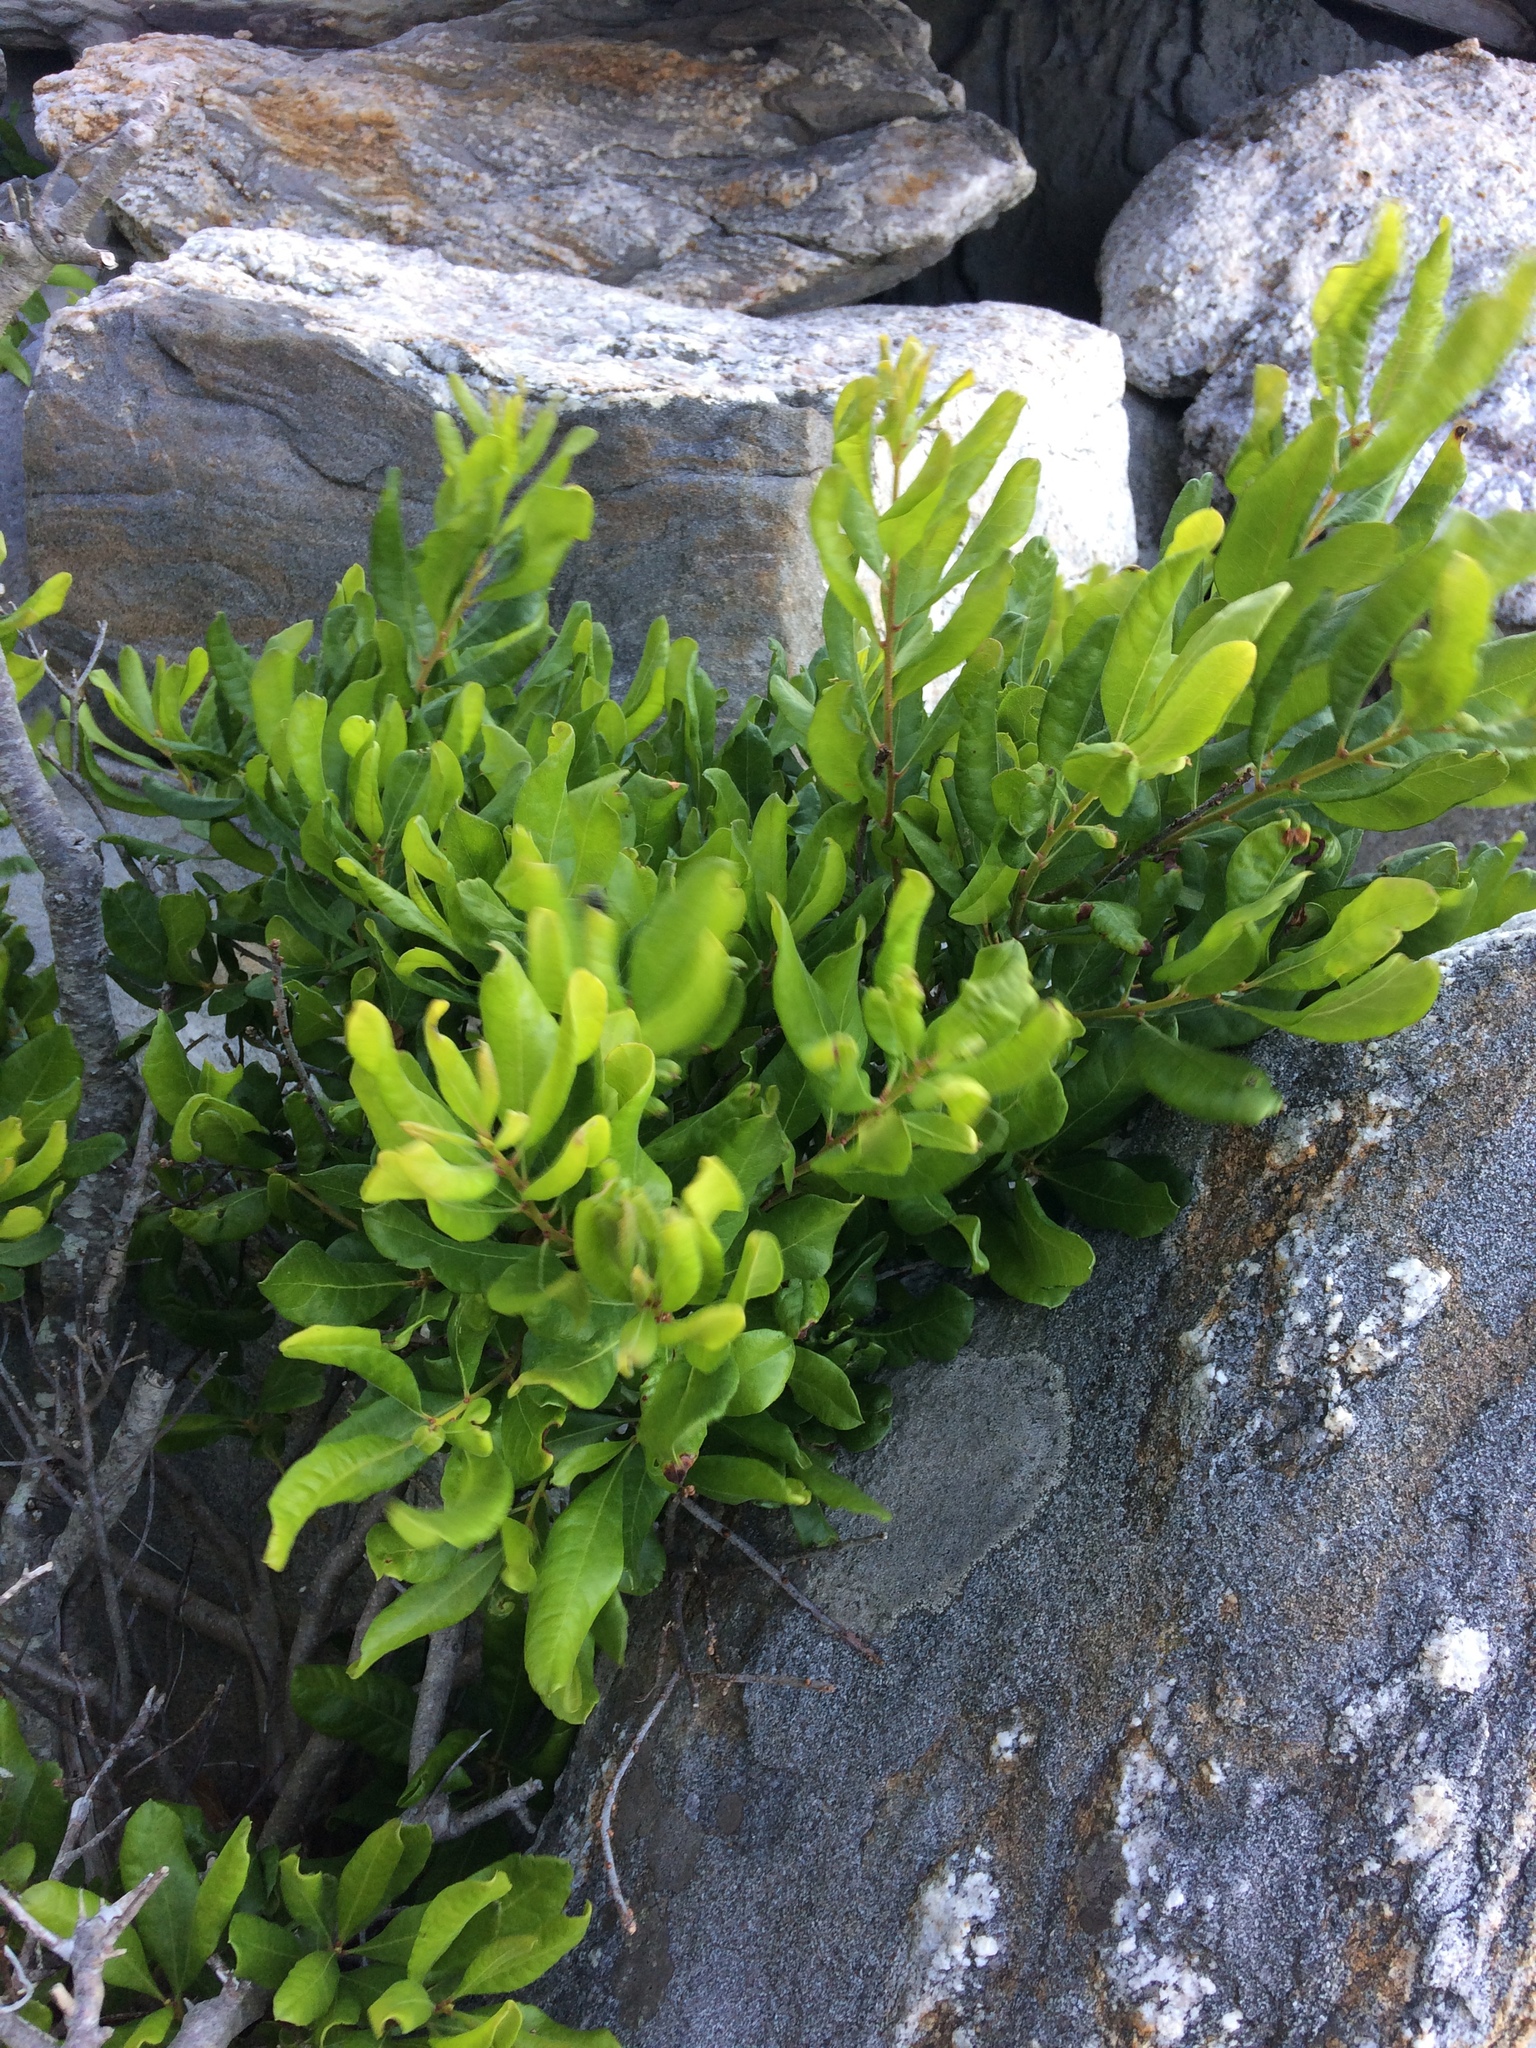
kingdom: Plantae
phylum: Tracheophyta
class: Magnoliopsida
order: Fagales
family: Myricaceae
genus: Morella
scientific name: Morella pensylvanica
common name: Northern bayberry
